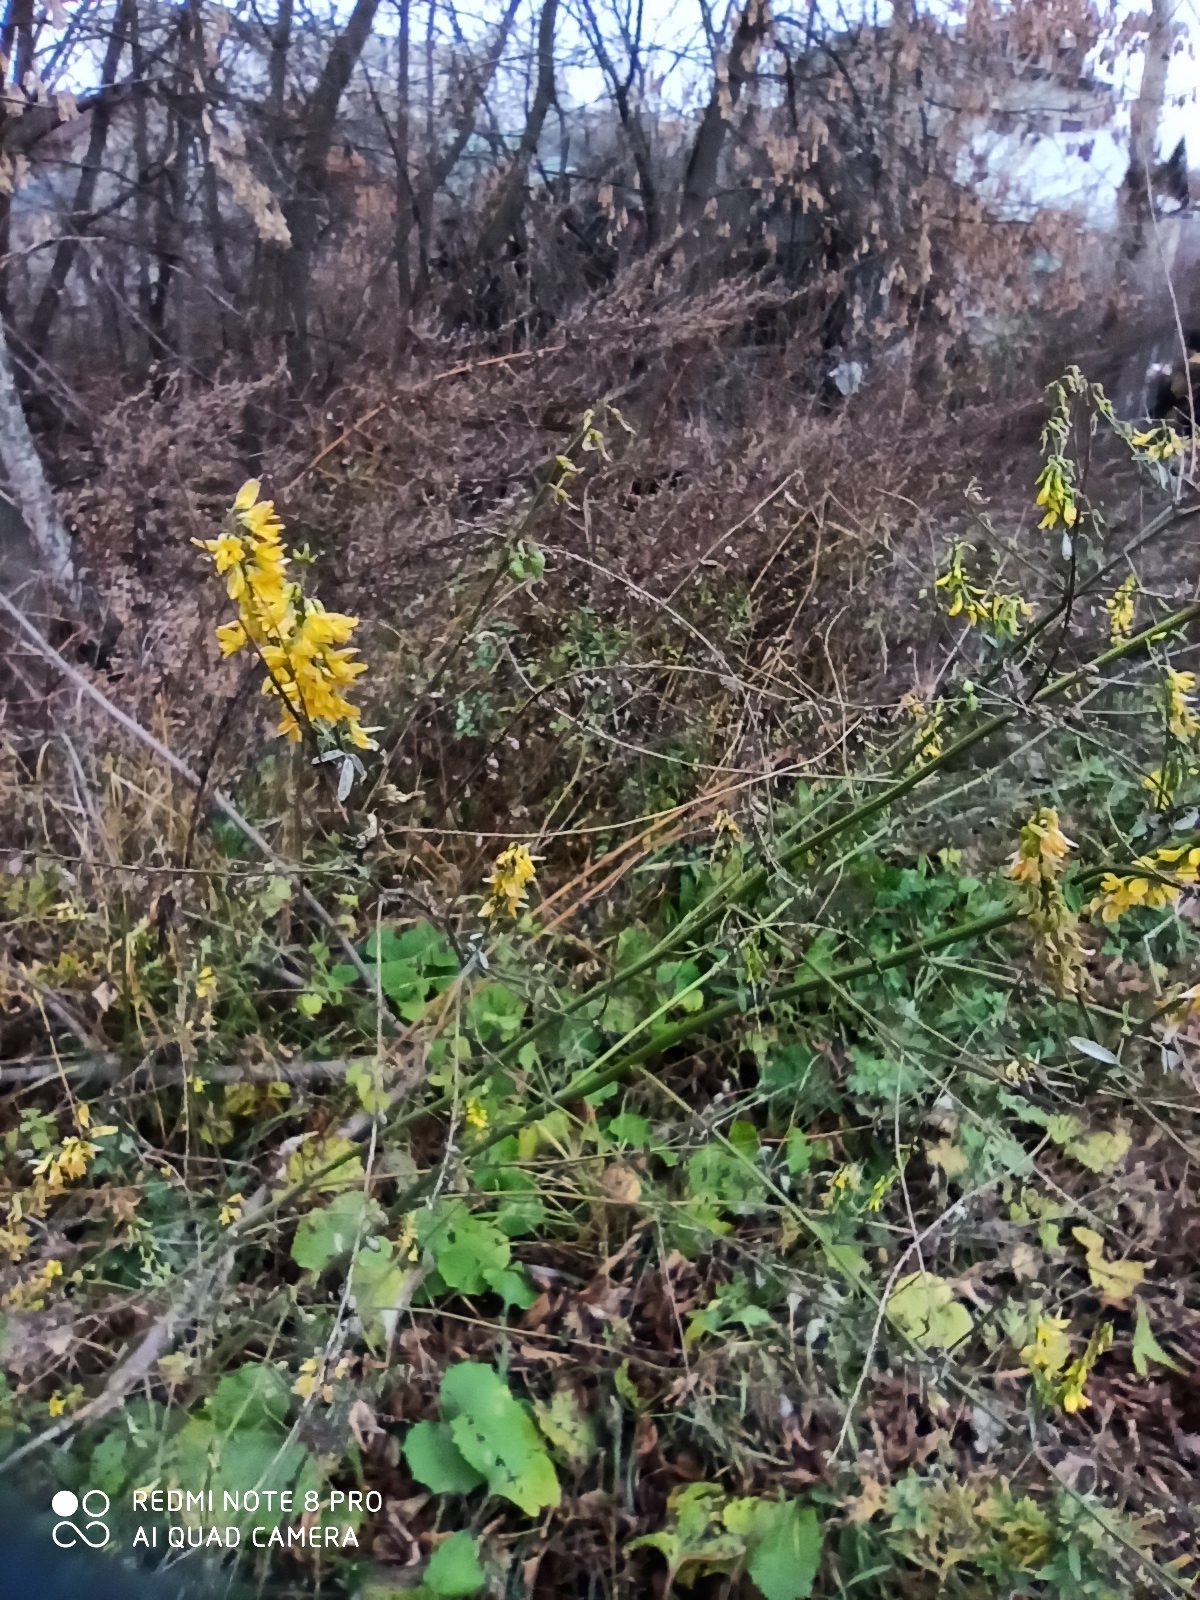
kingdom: Plantae
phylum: Tracheophyta
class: Magnoliopsida
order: Fabales
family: Fabaceae
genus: Melilotus
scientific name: Melilotus officinalis
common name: Sweetclover
